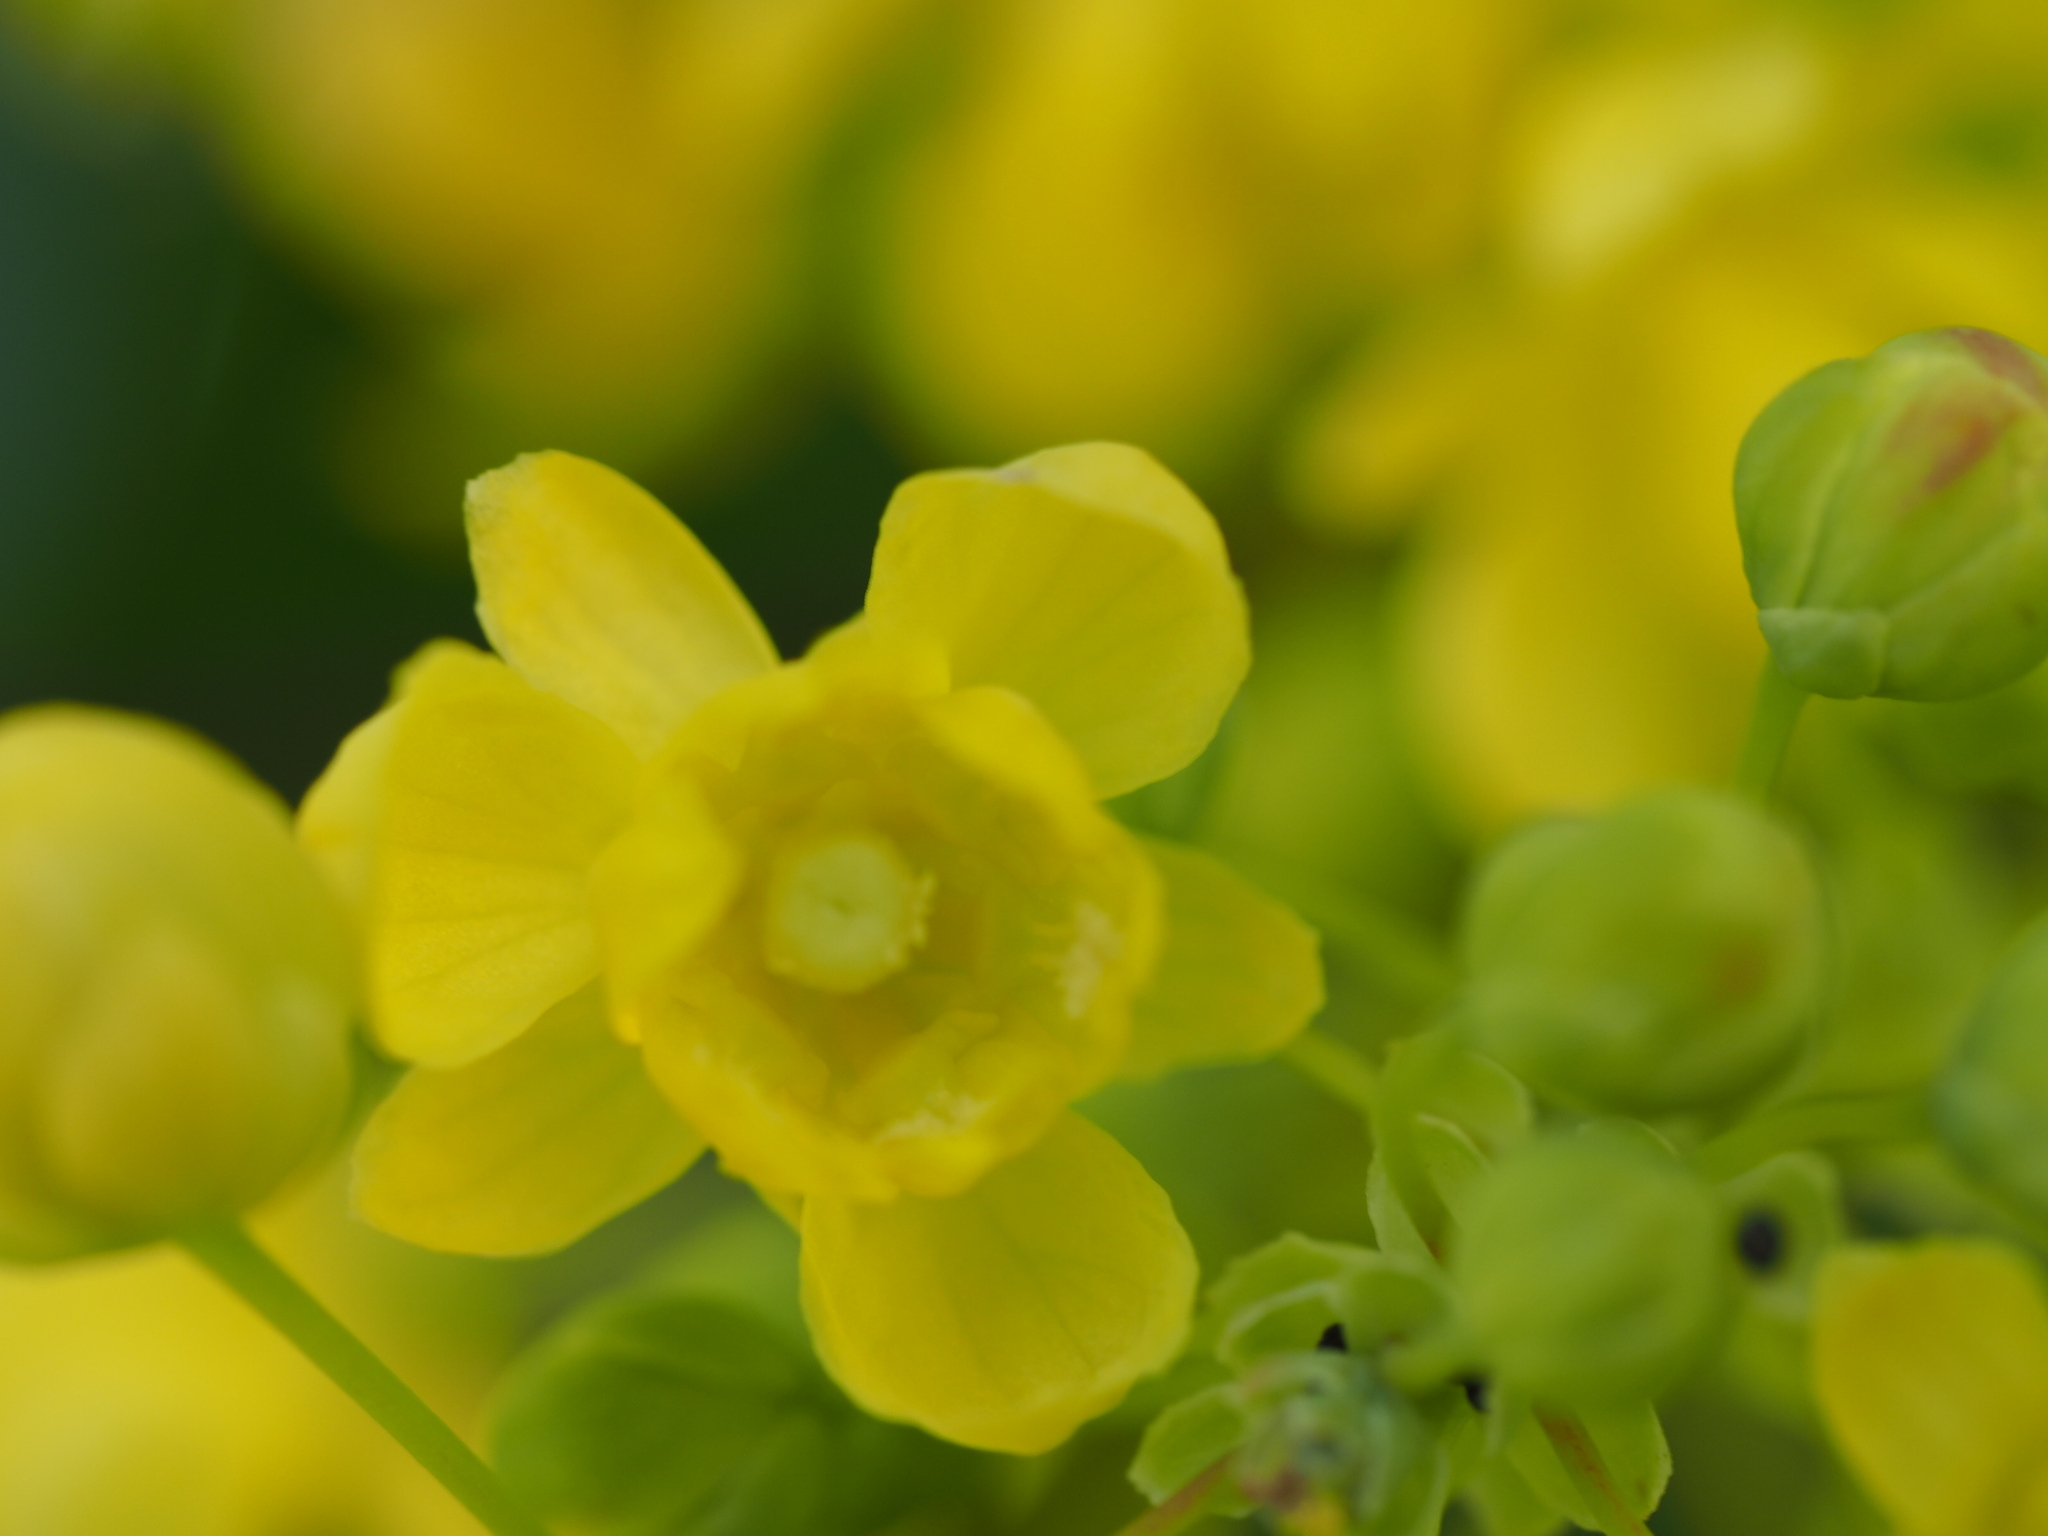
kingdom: Plantae
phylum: Tracheophyta
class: Magnoliopsida
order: Ranunculales
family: Berberidaceae
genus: Mahonia
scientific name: Mahonia aquifolium
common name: Oregon-grape
